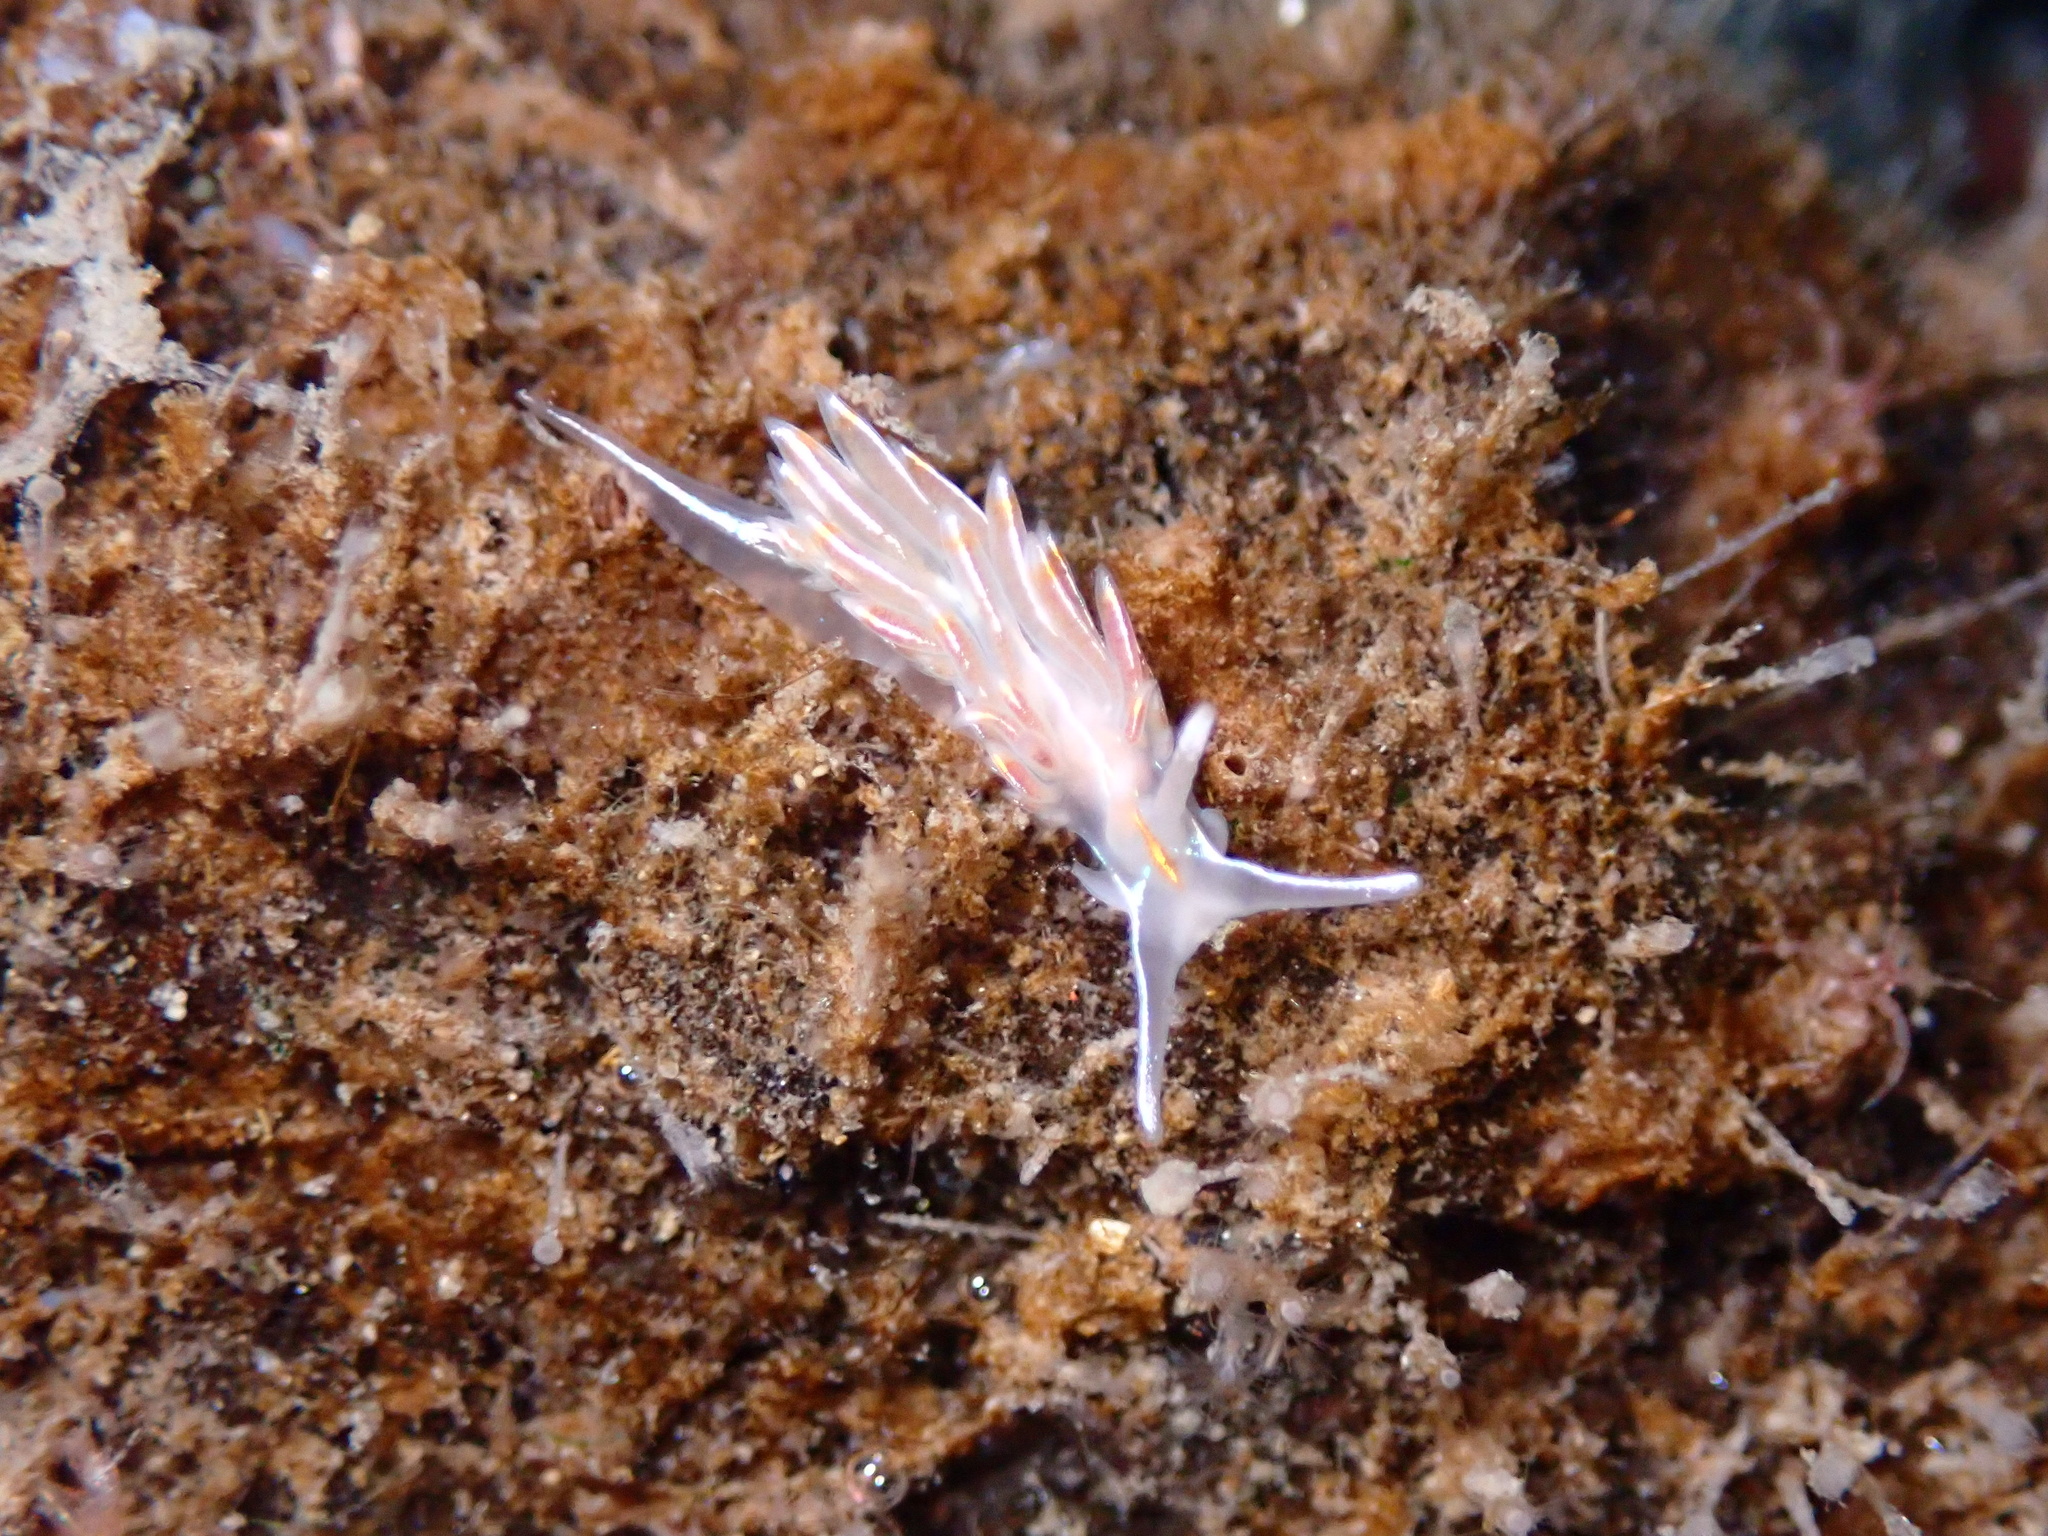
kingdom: Animalia
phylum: Mollusca
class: Gastropoda
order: Nudibranchia
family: Myrrhinidae
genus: Hermissenda
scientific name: Hermissenda crassicornis
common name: Hermissenda
